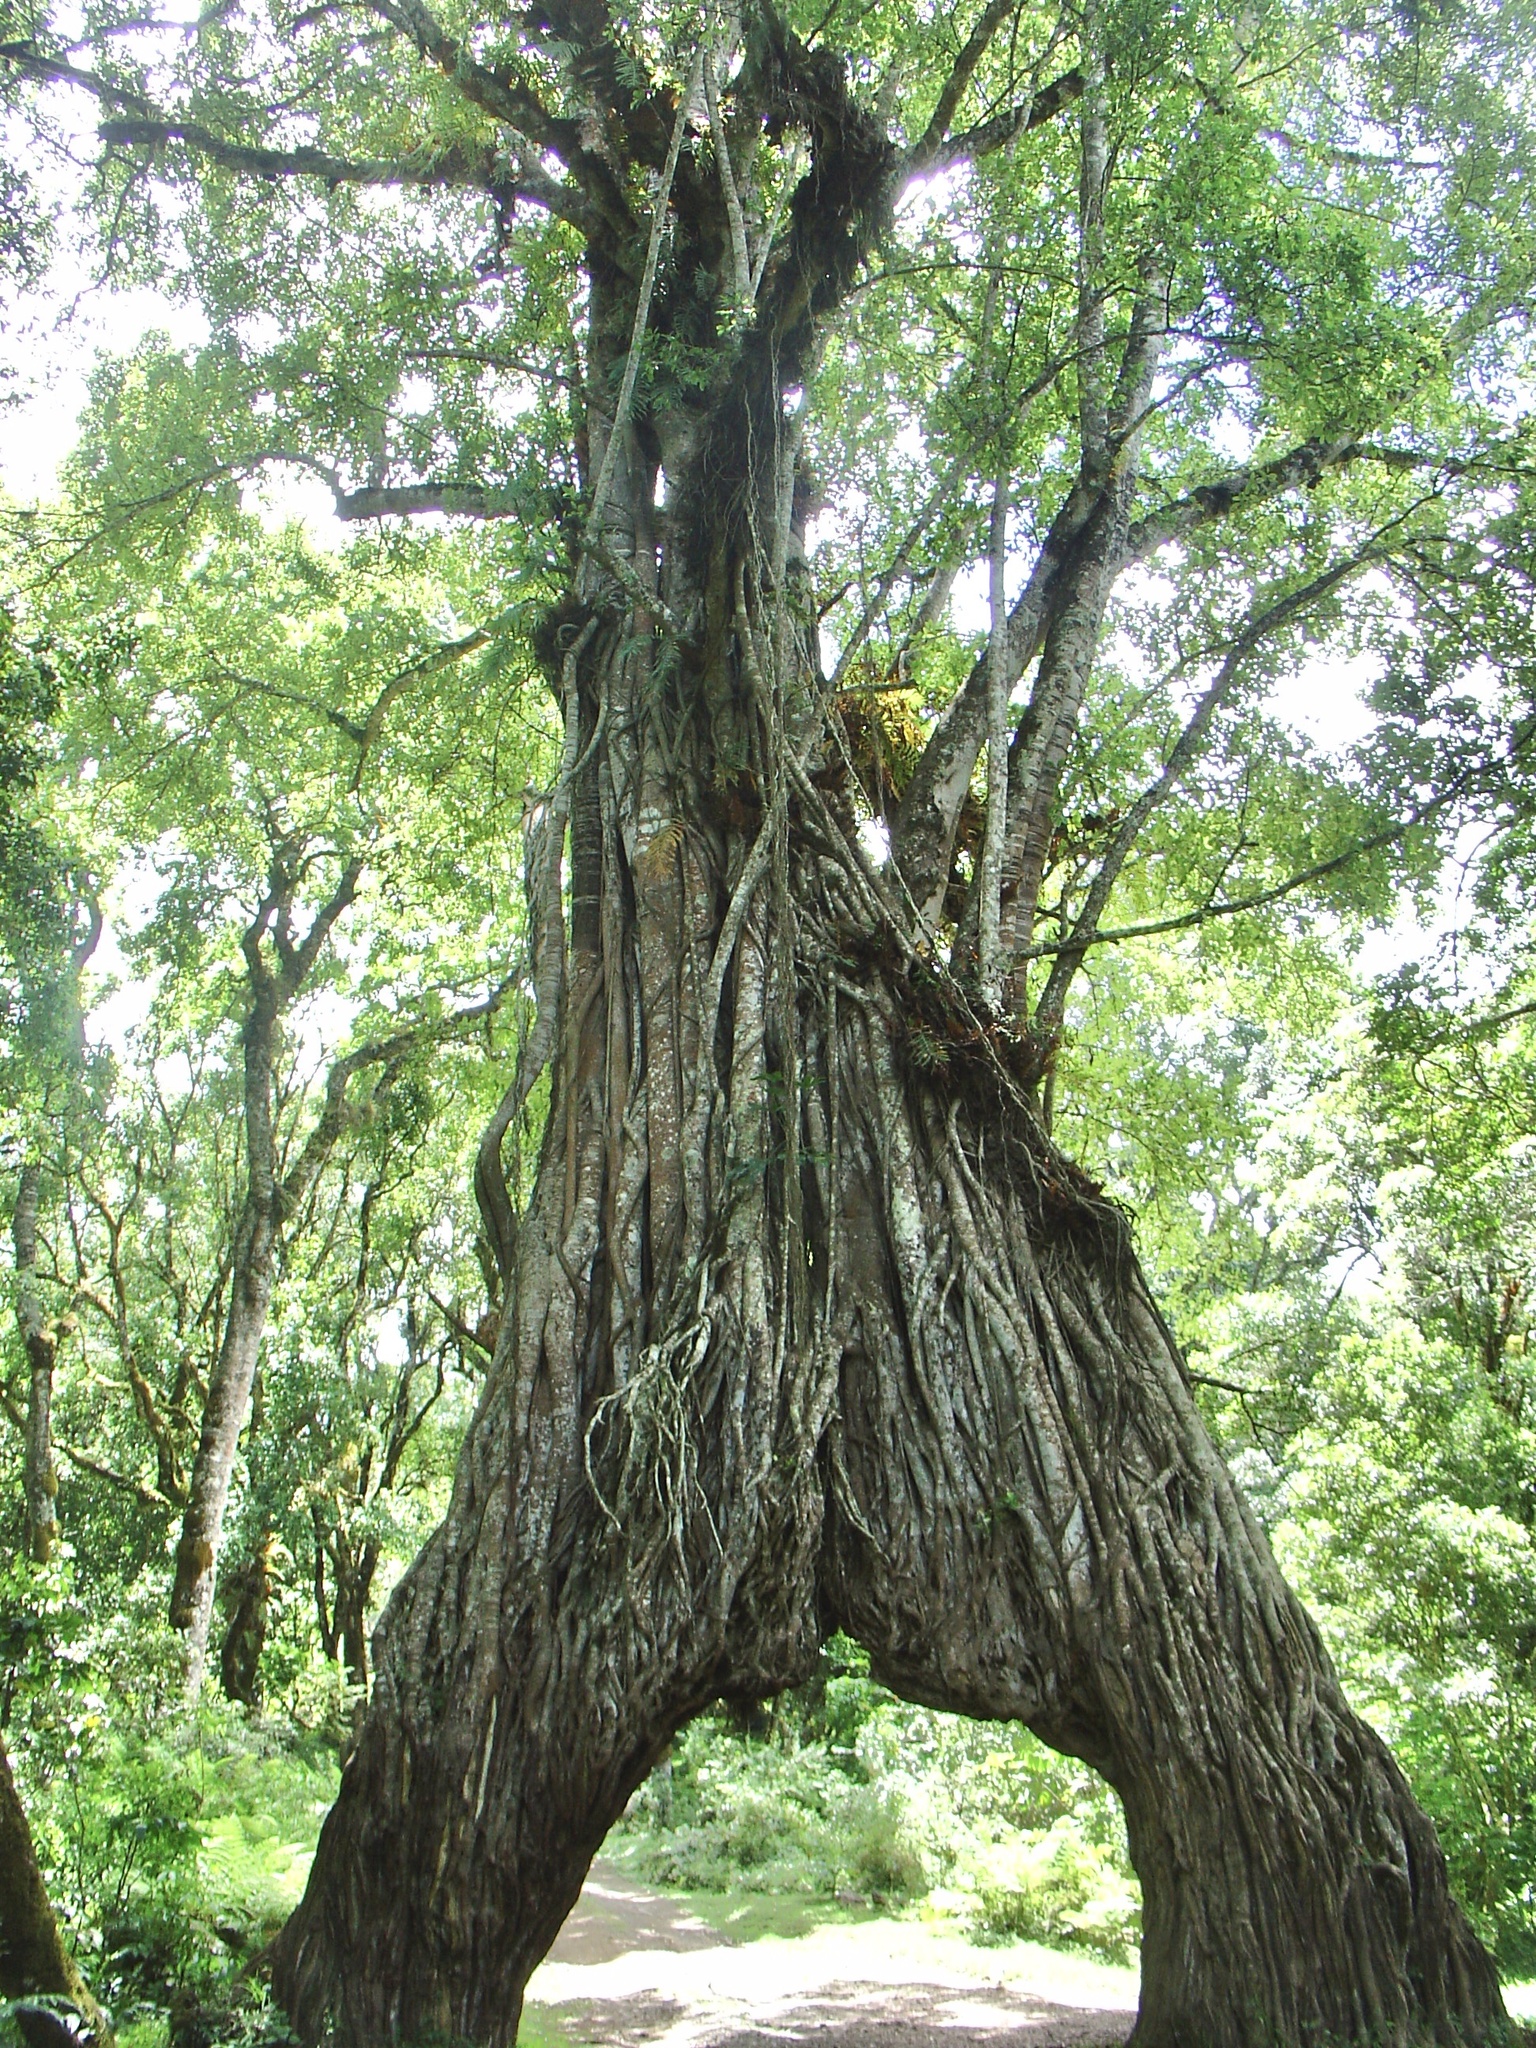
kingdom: Plantae
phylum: Tracheophyta
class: Magnoliopsida
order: Rosales
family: Moraceae
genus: Ficus
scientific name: Ficus thonningii
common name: Fig
